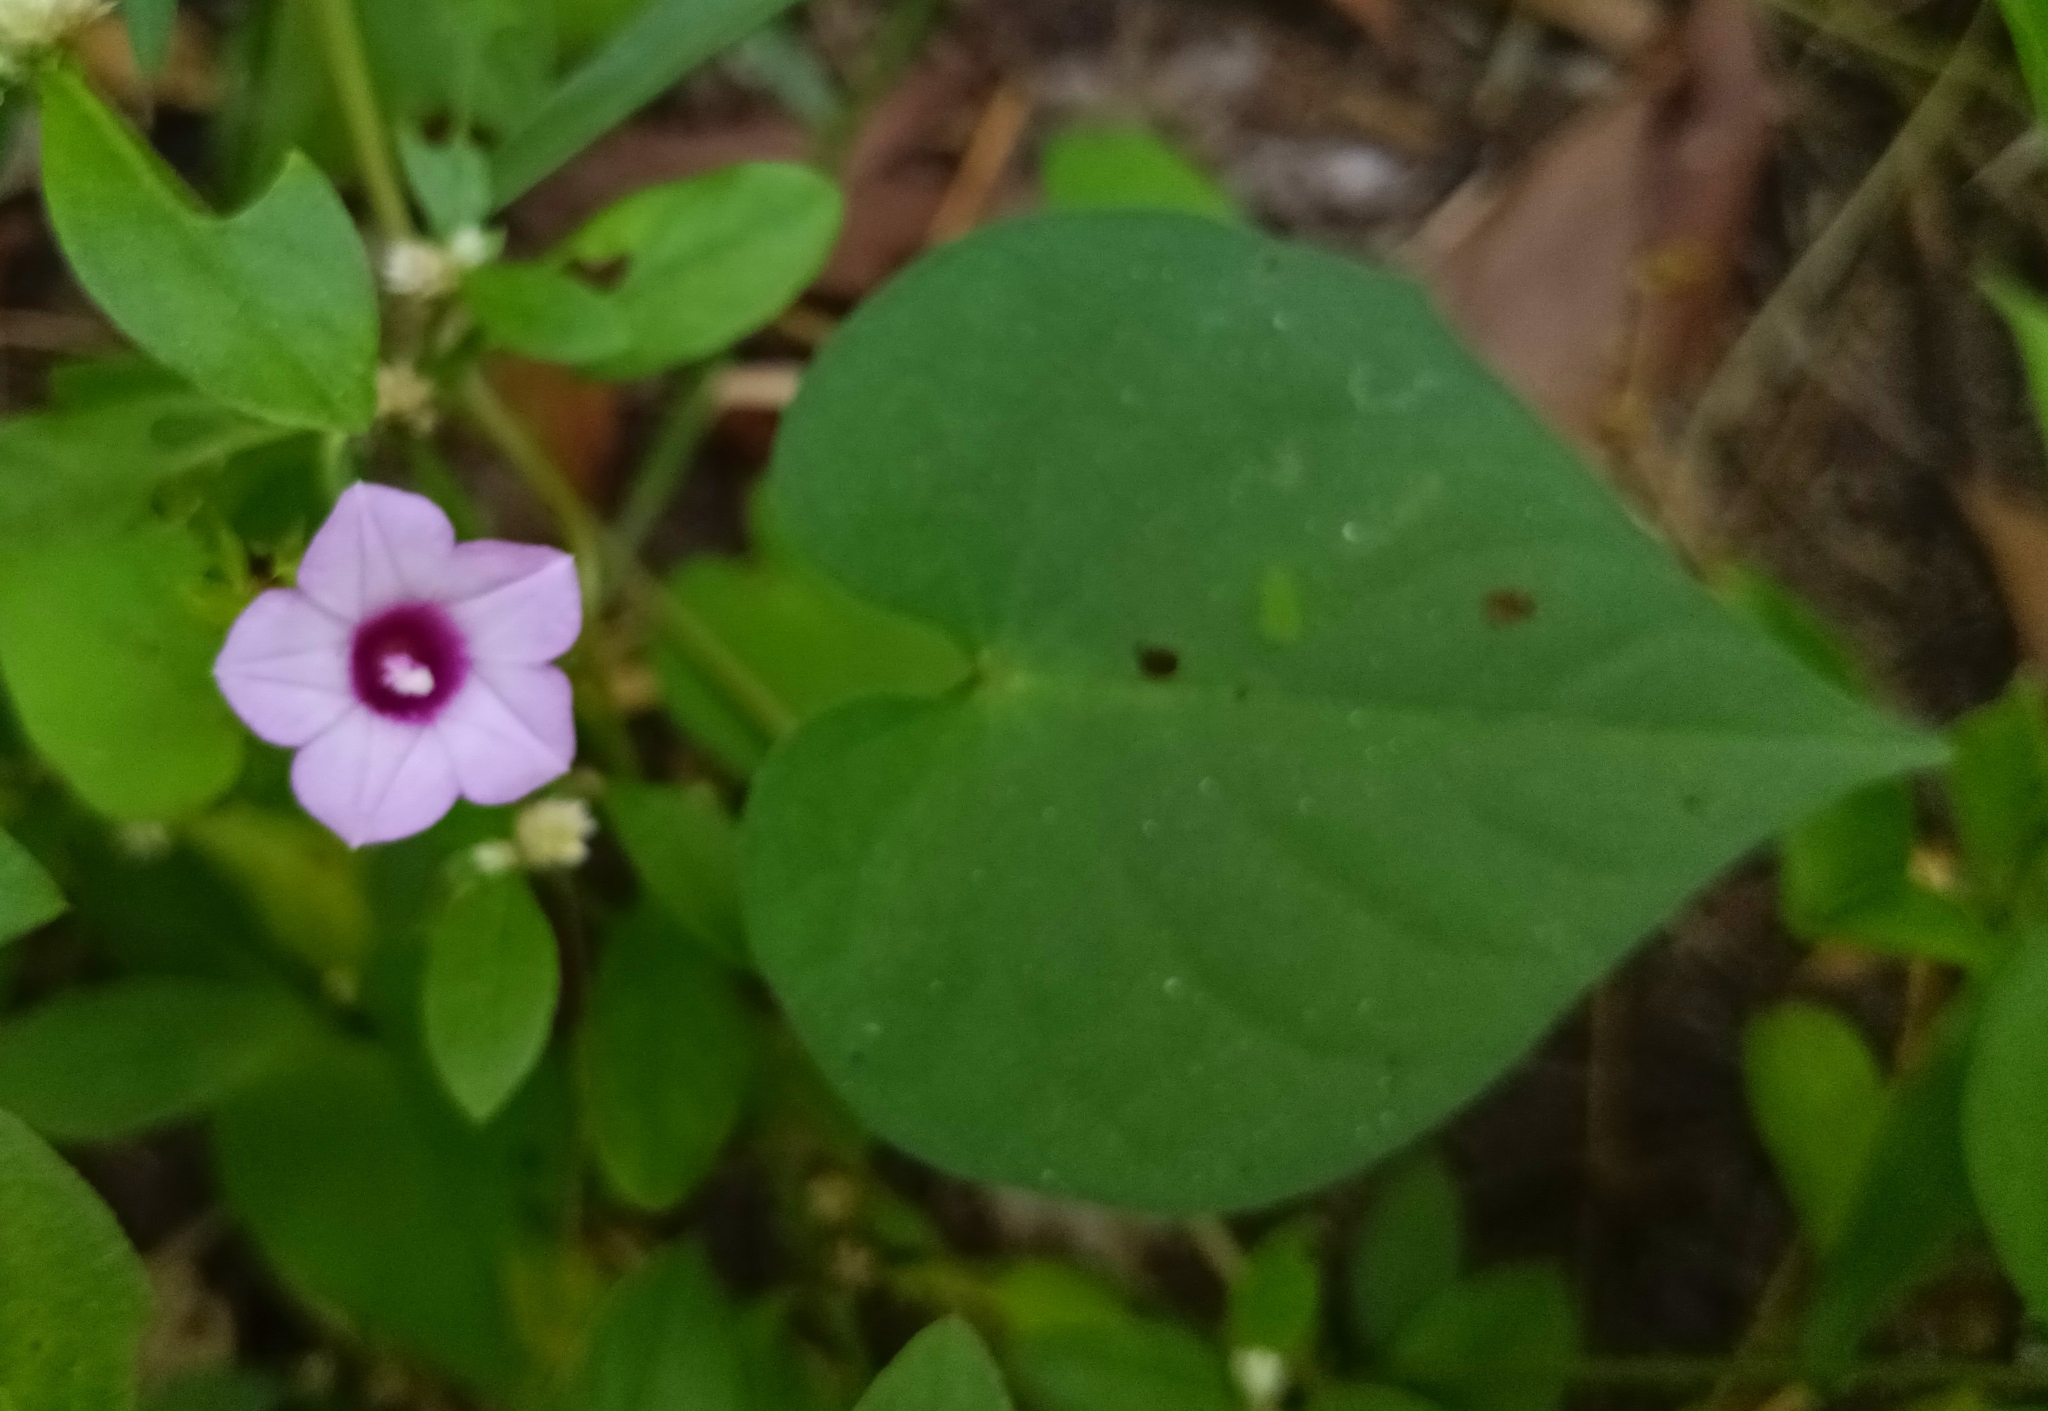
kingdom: Plantae
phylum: Tracheophyta
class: Magnoliopsida
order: Solanales
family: Convolvulaceae
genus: Ipomoea
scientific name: Ipomoea triloba
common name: Little-bell
